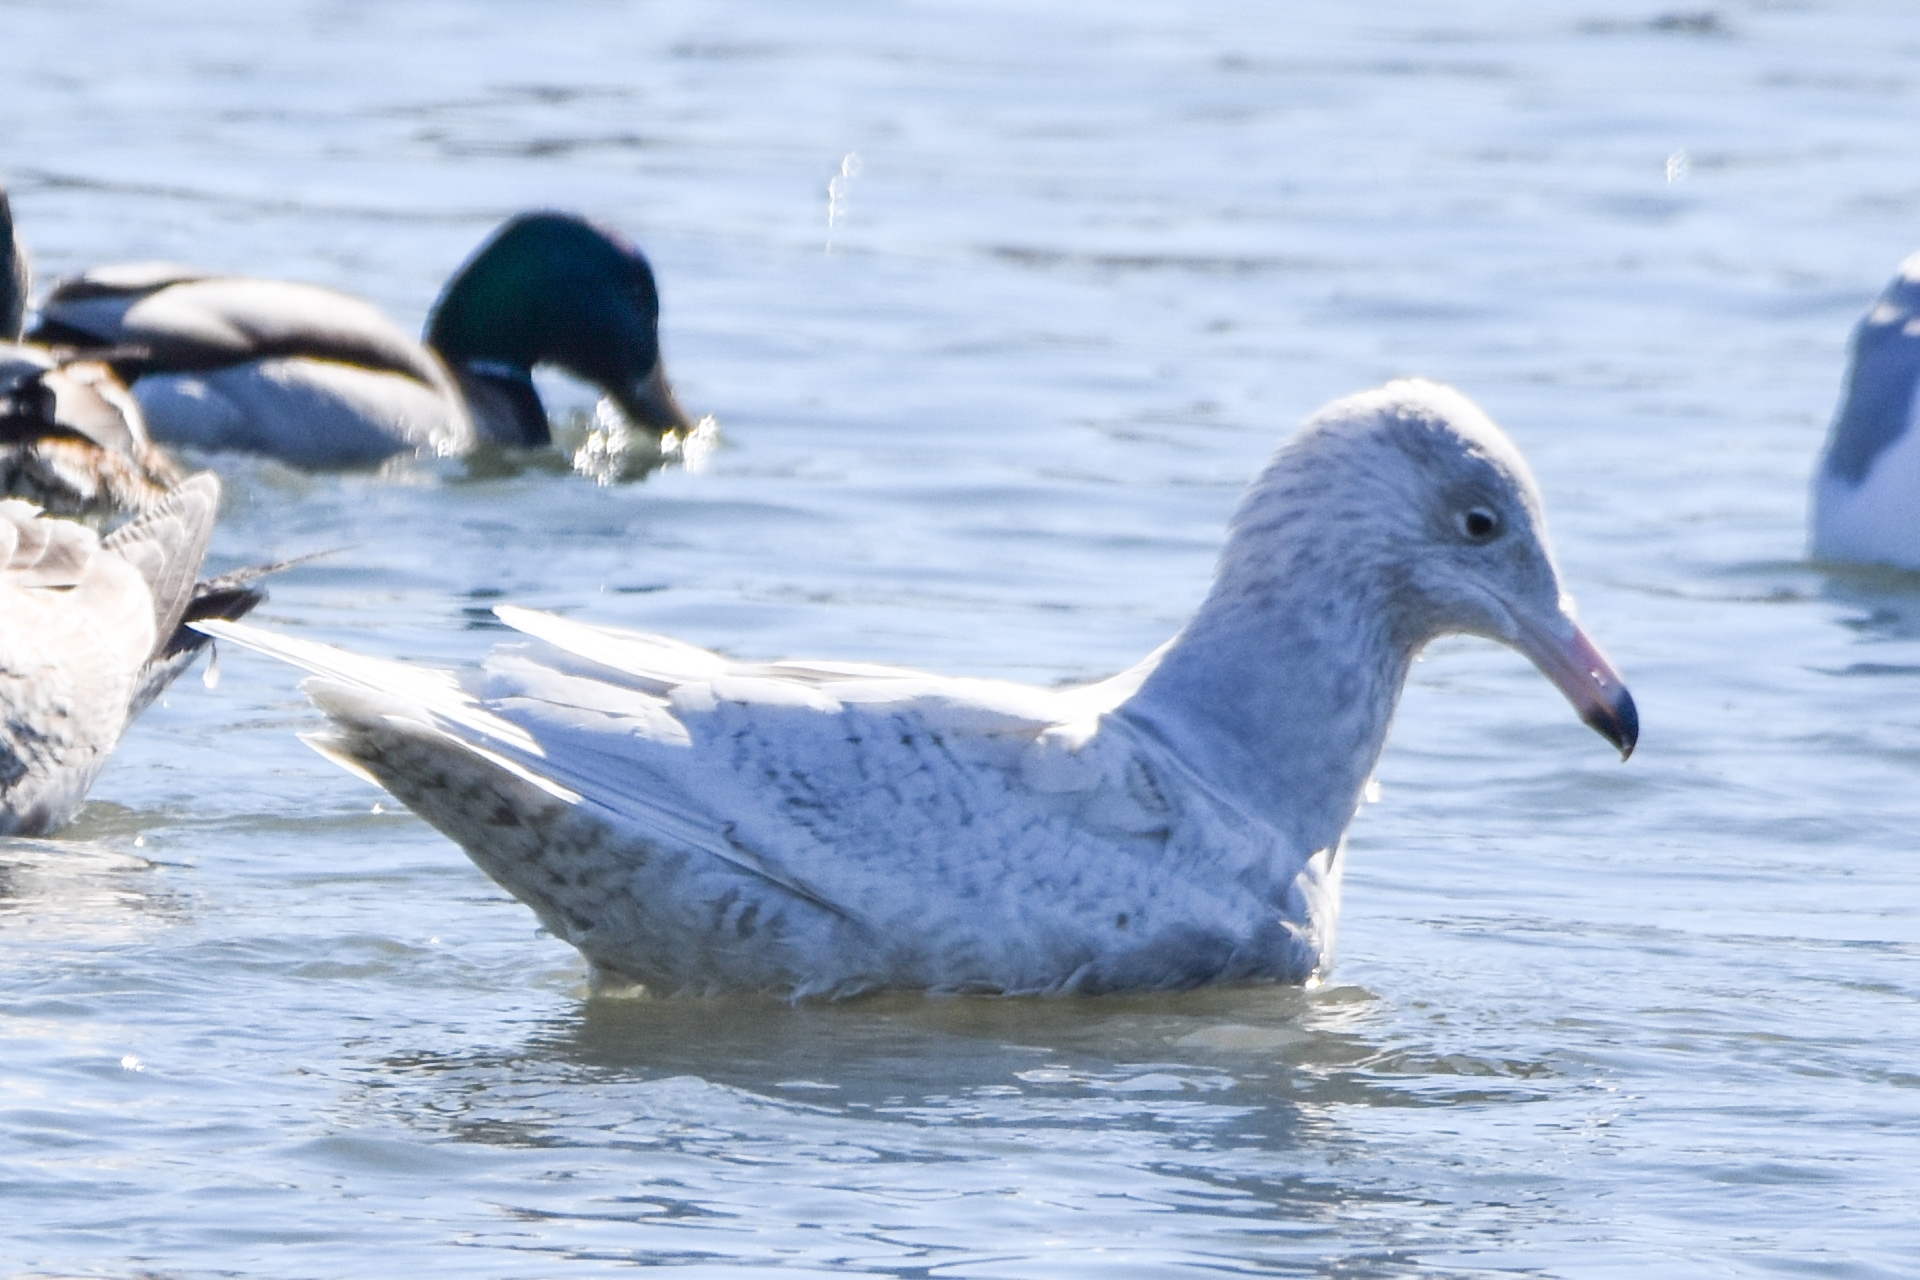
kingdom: Animalia
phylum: Chordata
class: Aves
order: Charadriiformes
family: Laridae
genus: Larus
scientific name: Larus hyperboreus
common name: Glaucous gull
